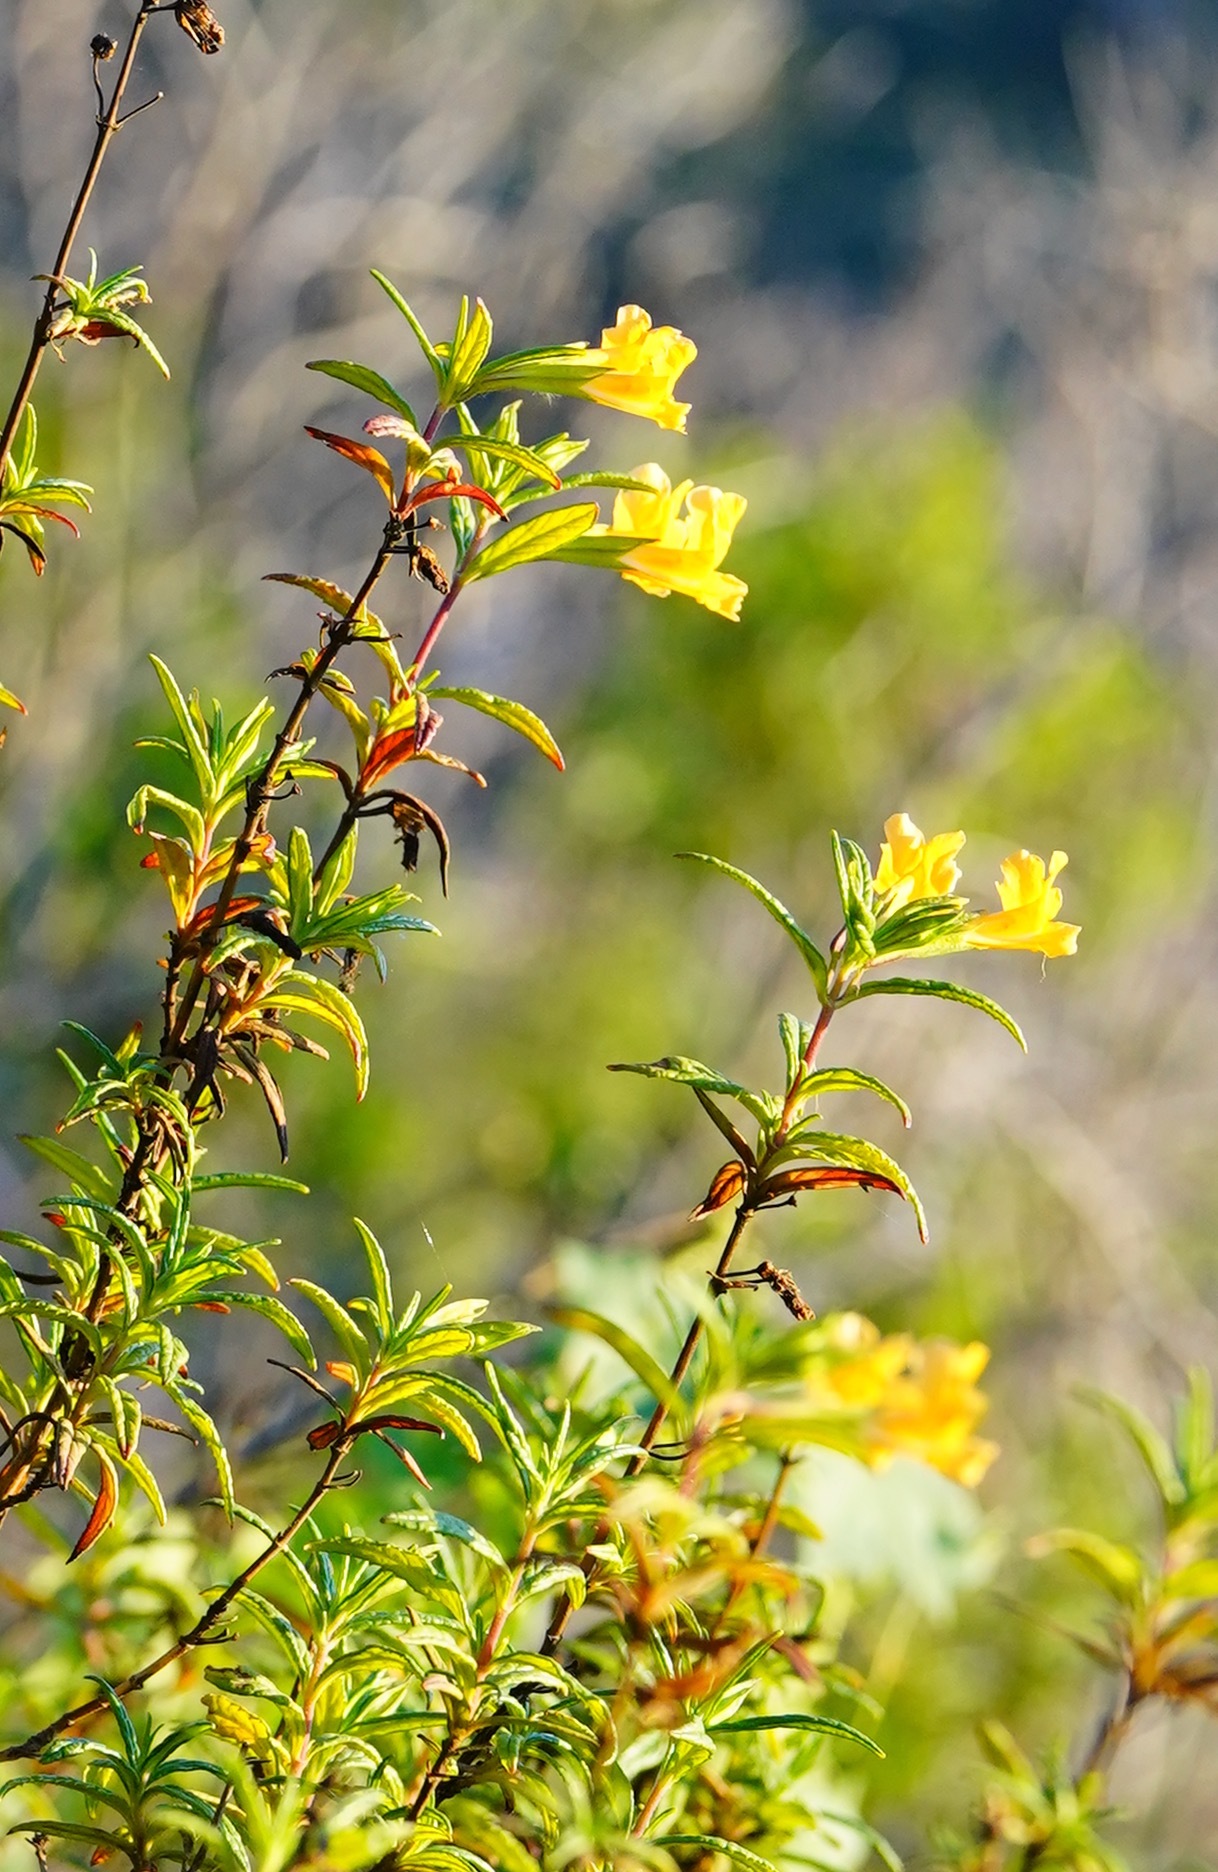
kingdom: Plantae
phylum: Tracheophyta
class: Magnoliopsida
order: Lamiales
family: Phrymaceae
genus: Diplacus
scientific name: Diplacus aurantiacus
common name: Bush monkey-flower
